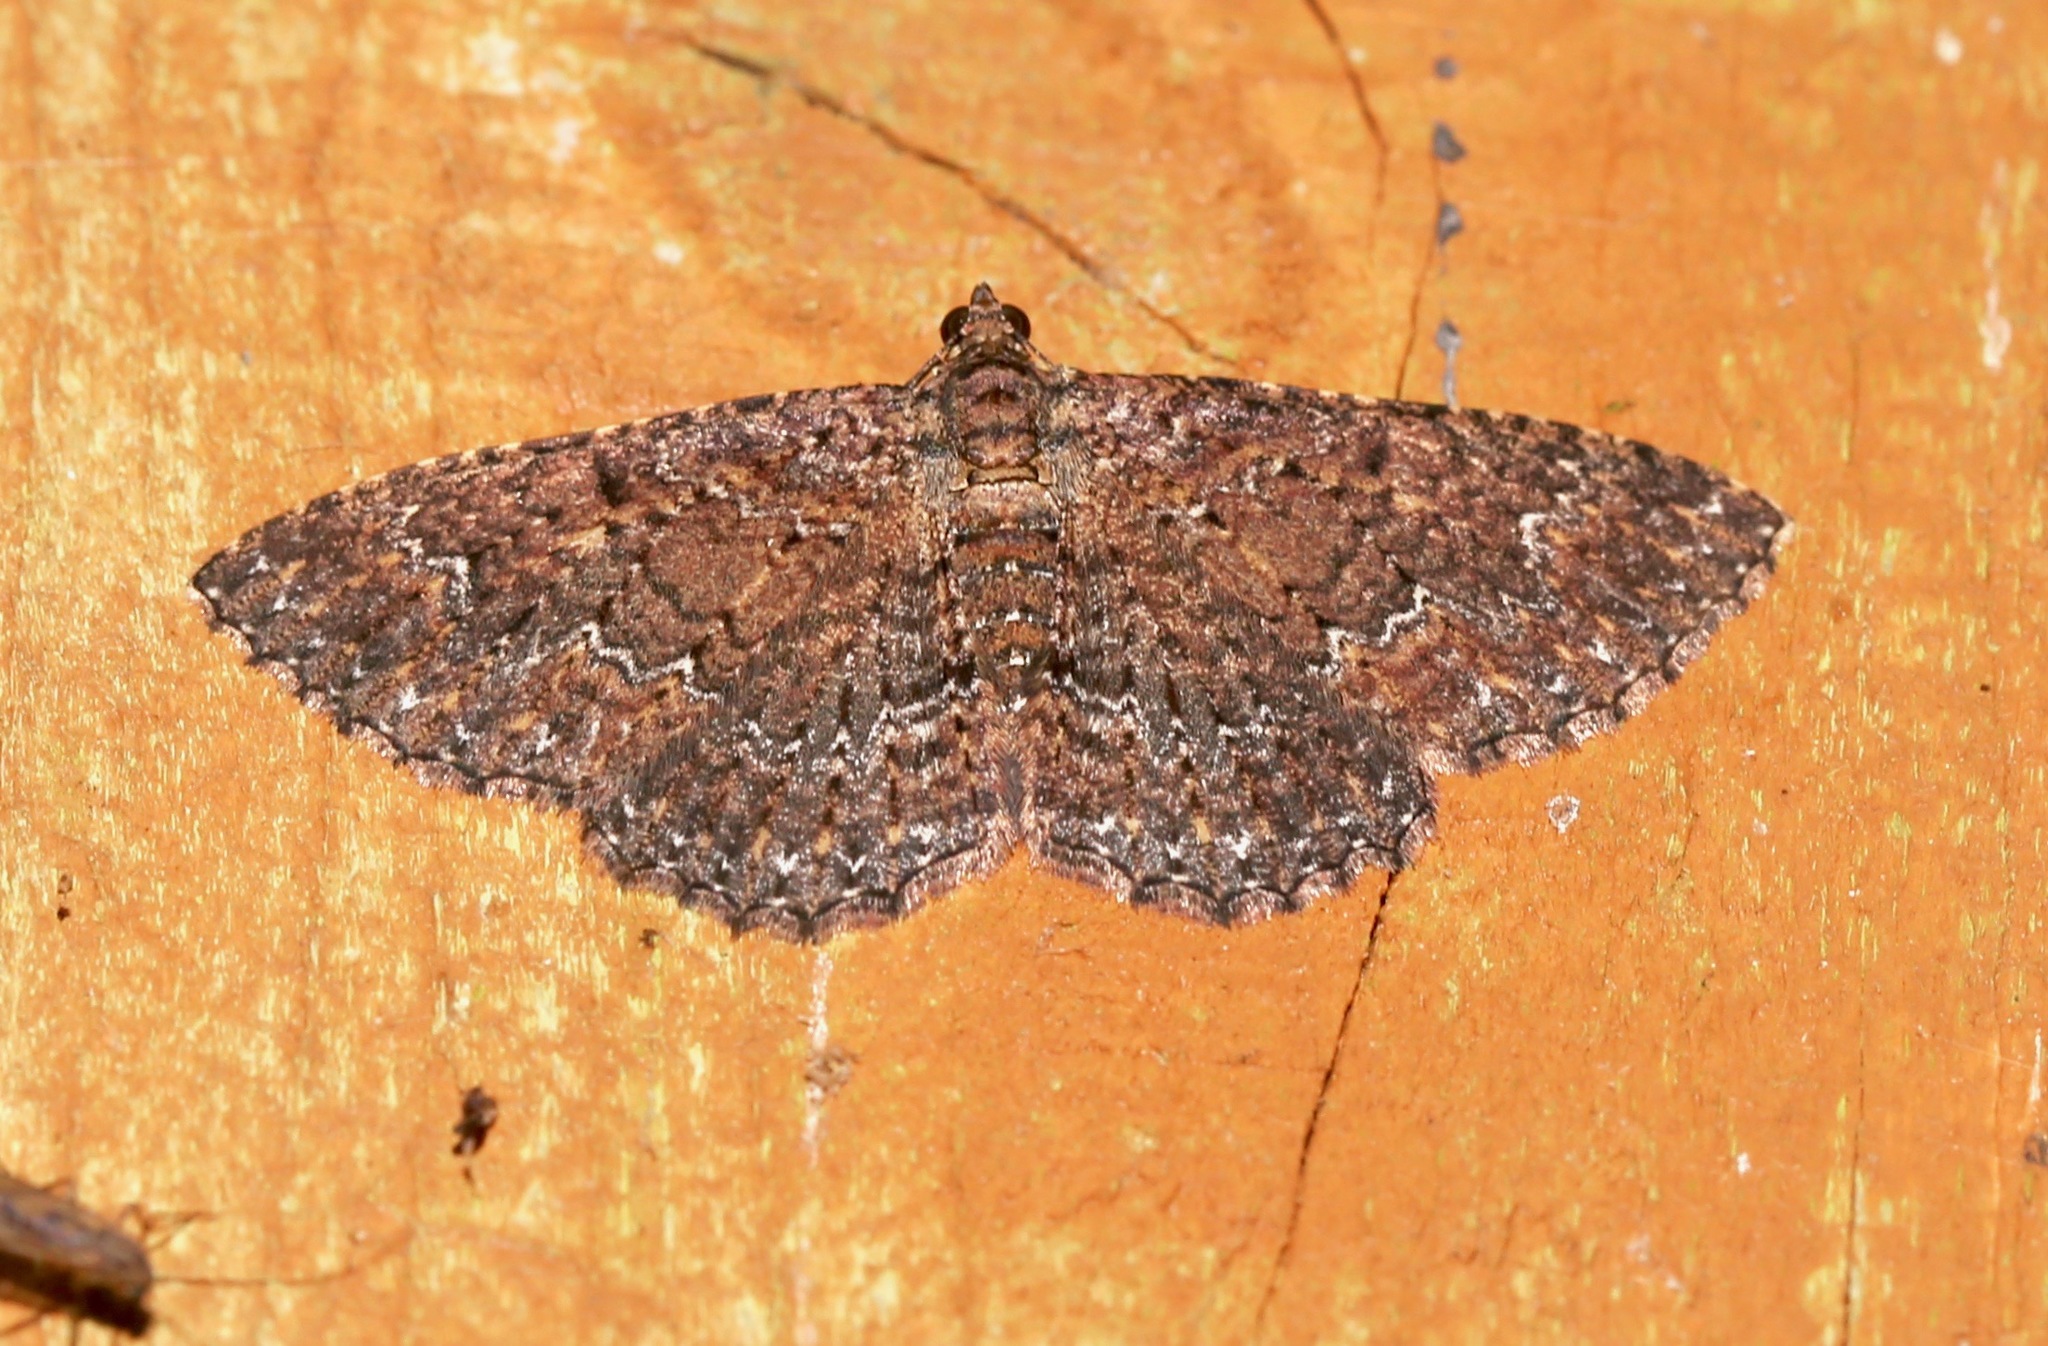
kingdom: Animalia
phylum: Arthropoda
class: Insecta
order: Lepidoptera
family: Geometridae
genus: Disclisioprocta
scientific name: Disclisioprocta stellata
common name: Somber carpet
